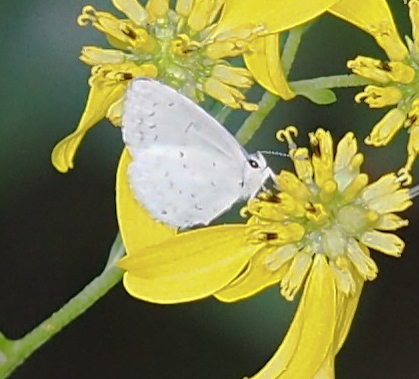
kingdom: Animalia
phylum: Arthropoda
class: Insecta
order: Lepidoptera
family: Lycaenidae
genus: Cyaniris
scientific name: Cyaniris neglecta
